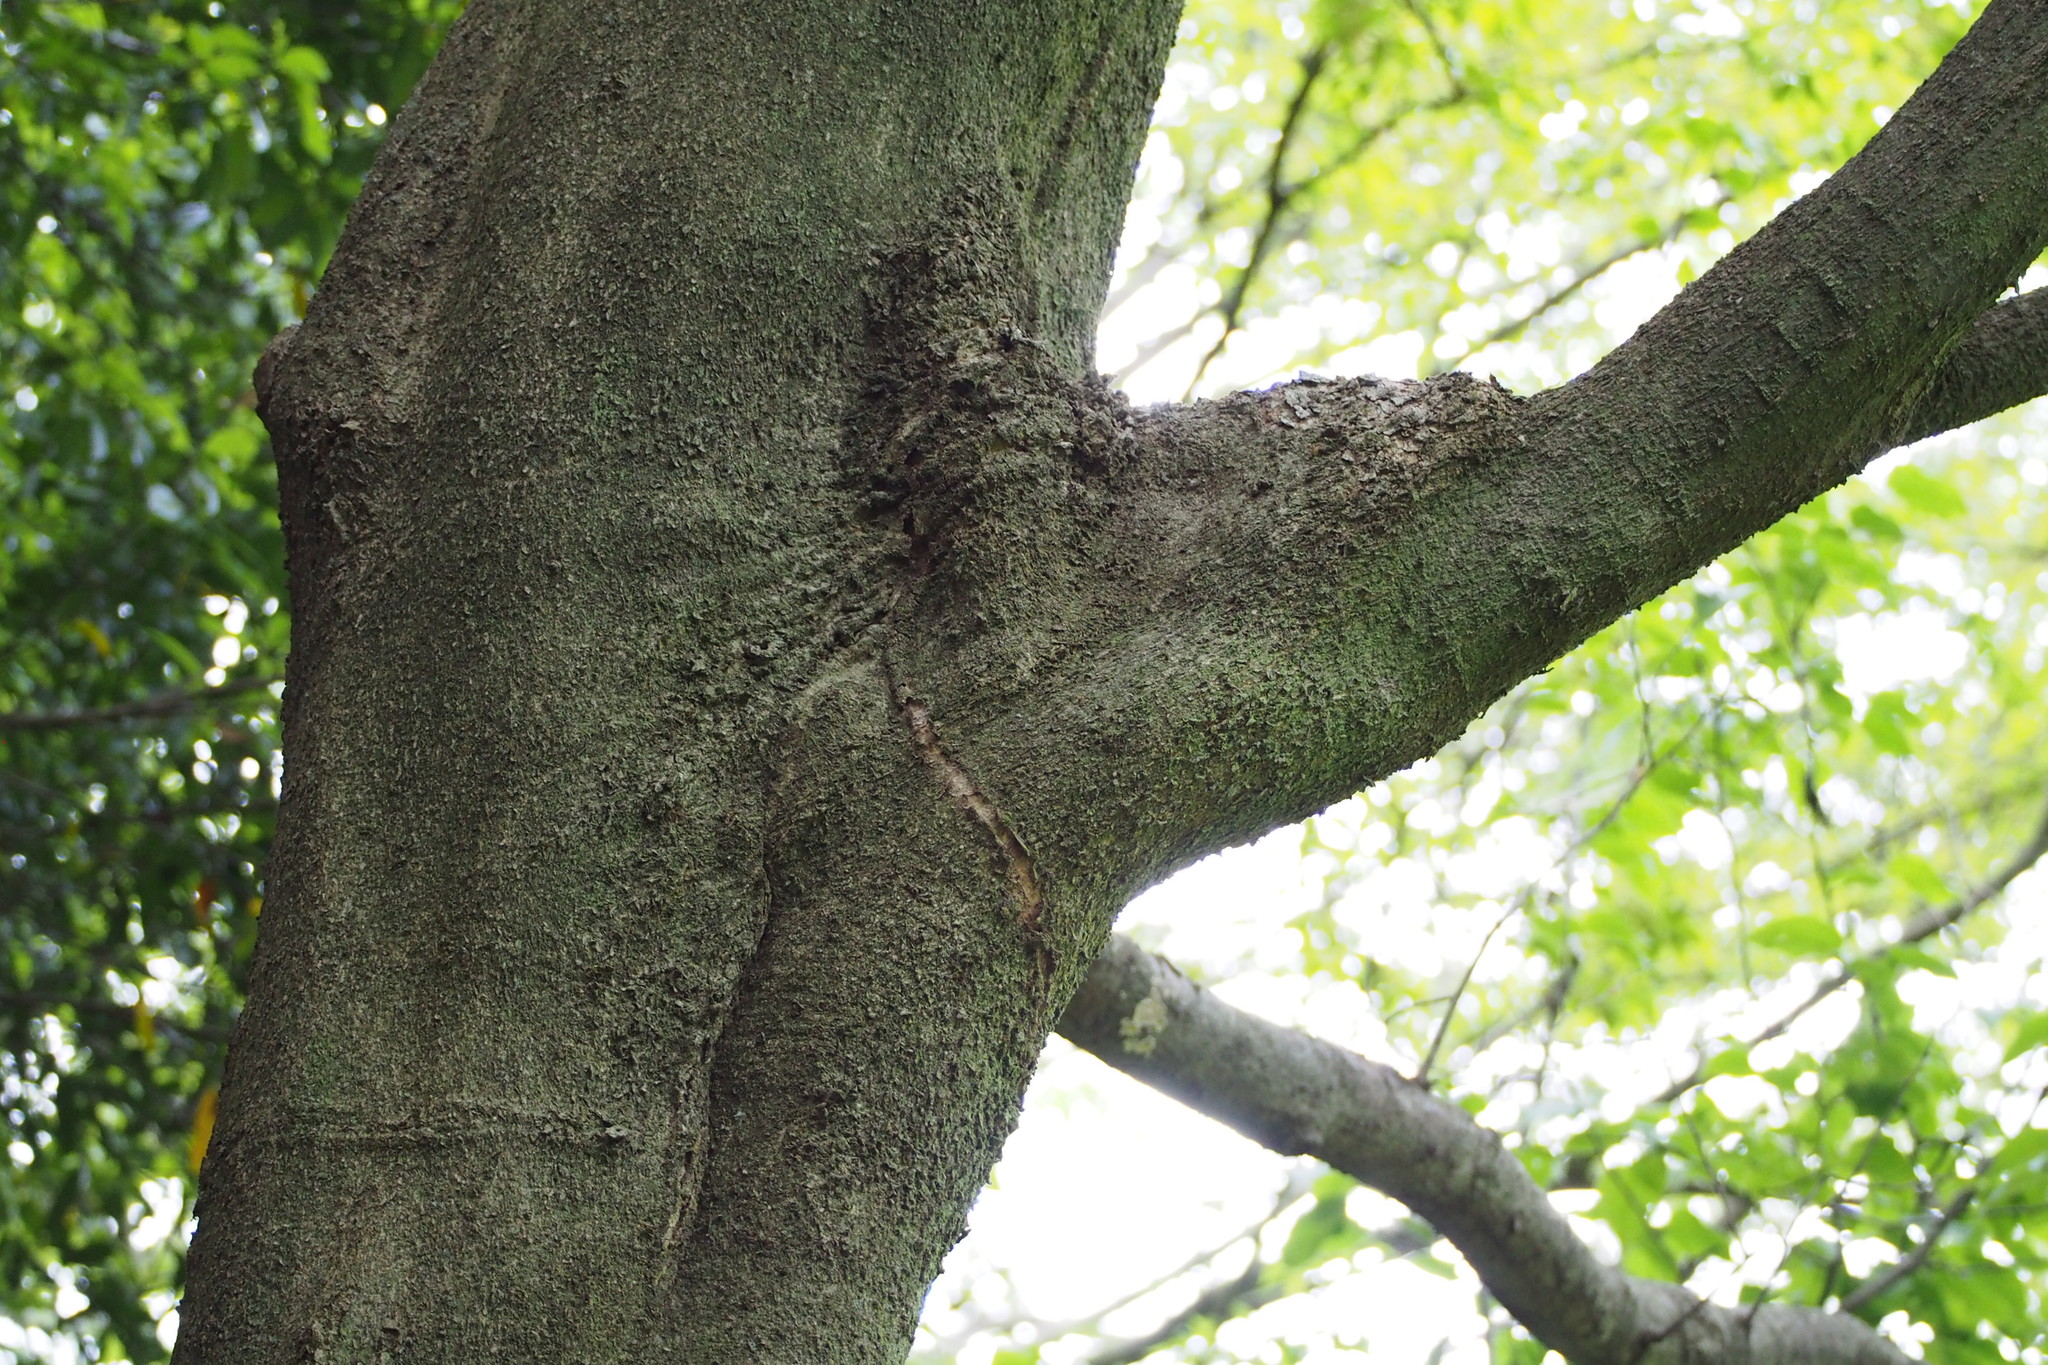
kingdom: Plantae
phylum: Tracheophyta
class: Magnoliopsida
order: Rosales
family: Cannabaceae
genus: Celtis
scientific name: Celtis sinensis
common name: Chinese hackberry
